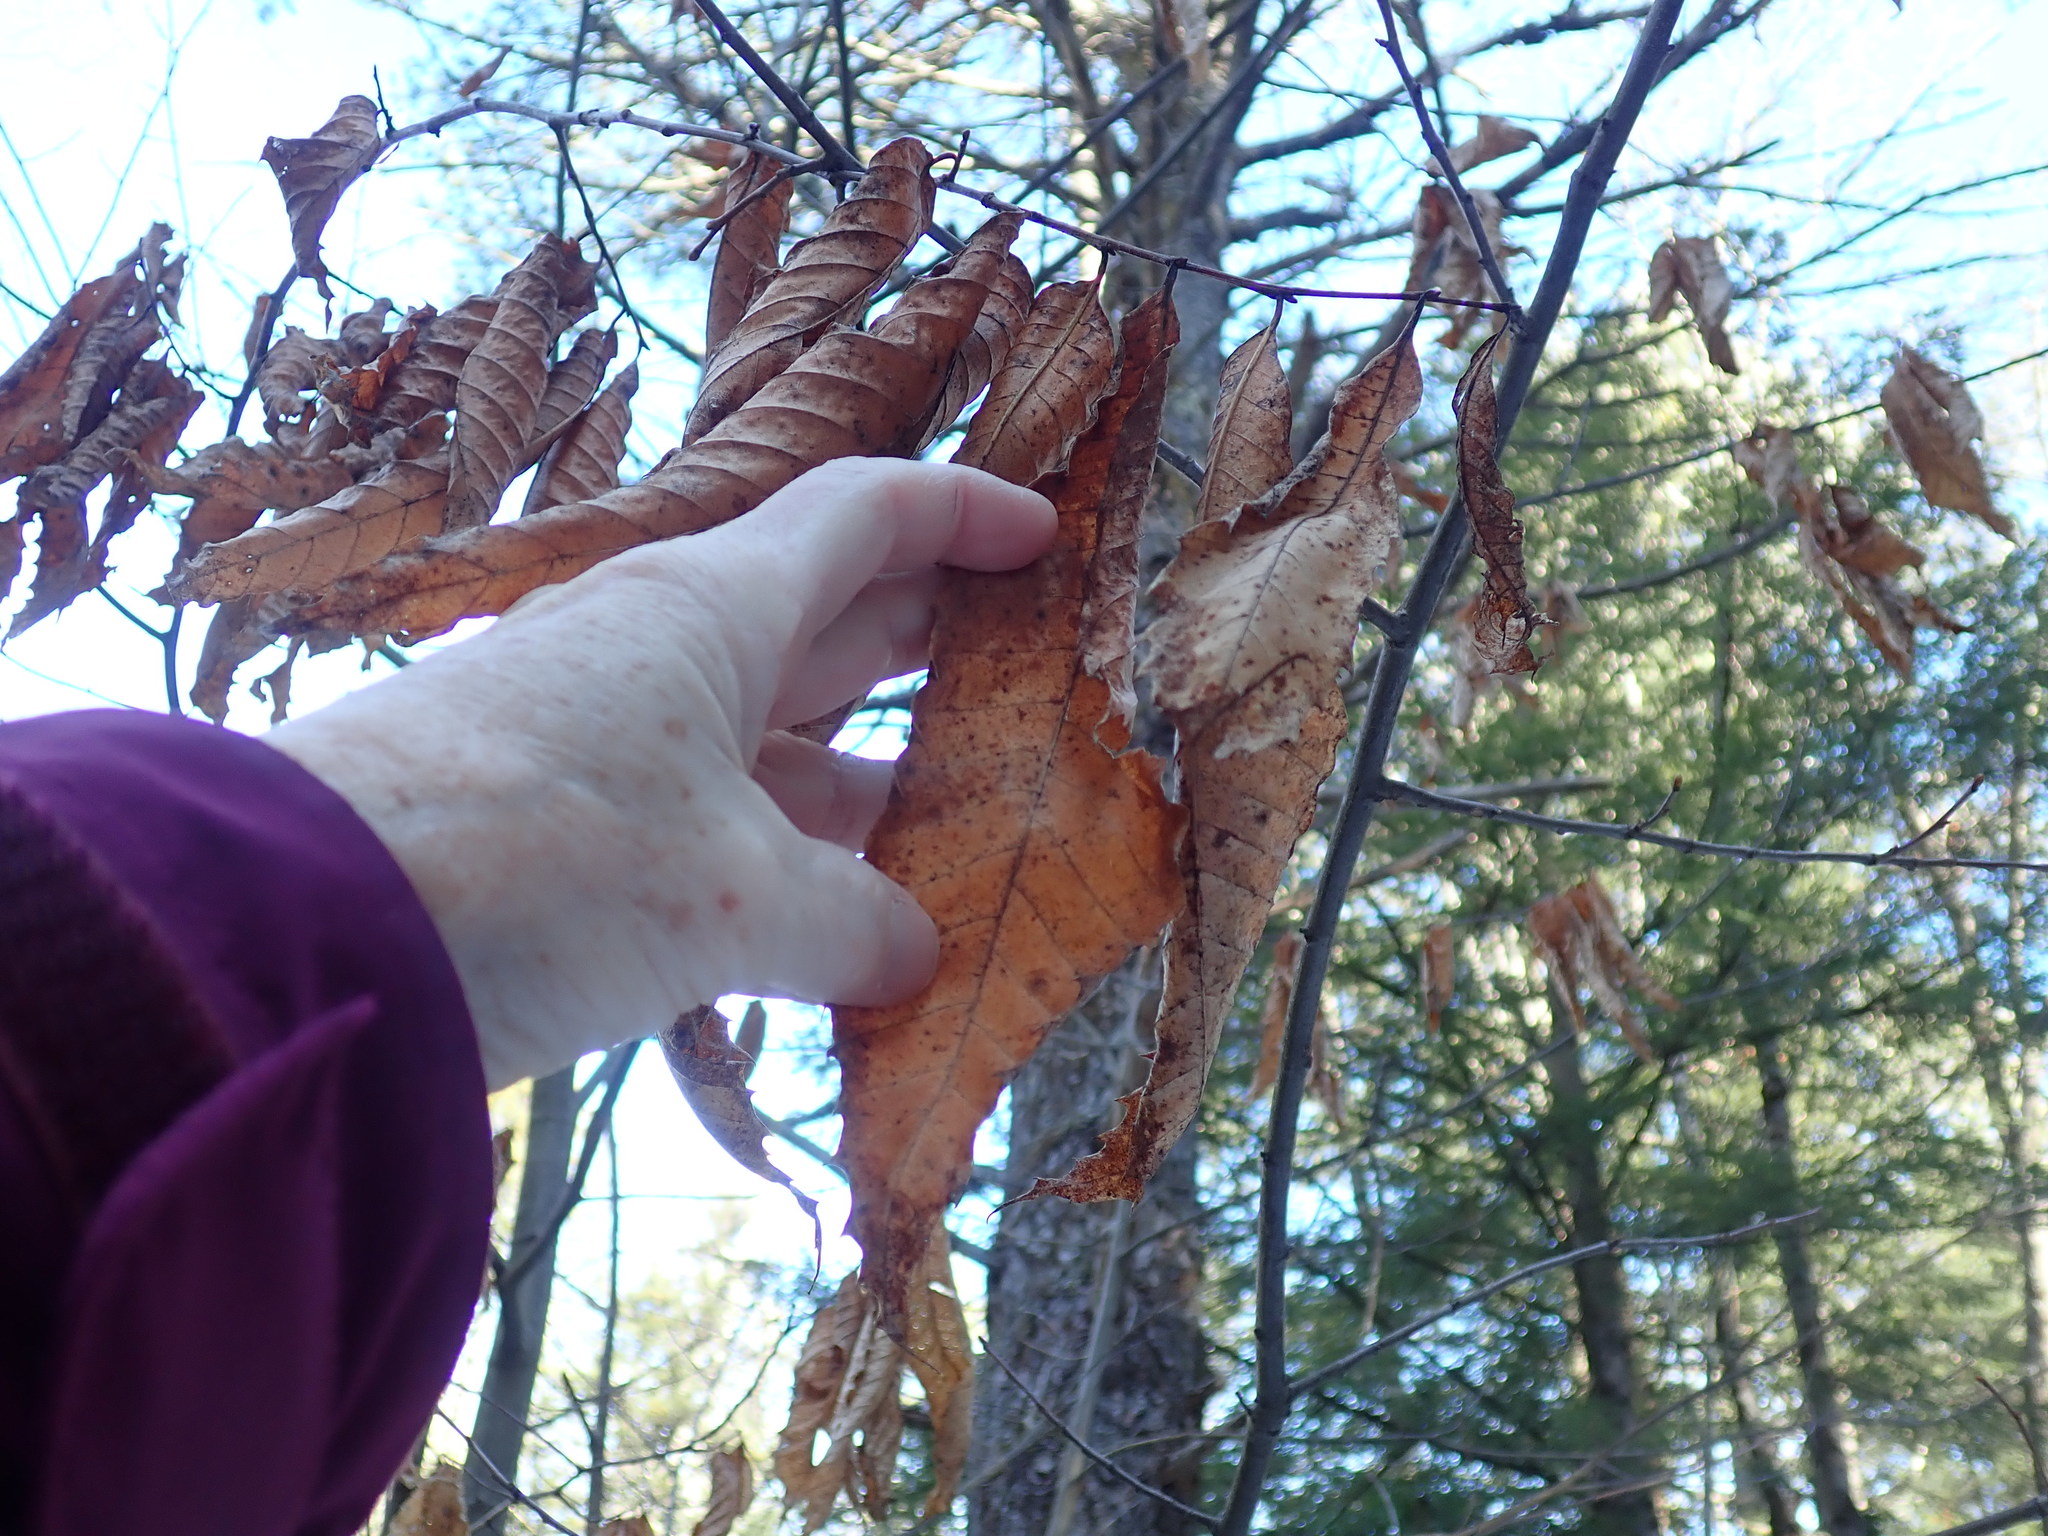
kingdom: Plantae
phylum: Tracheophyta
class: Magnoliopsida
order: Fagales
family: Fagaceae
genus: Castanea
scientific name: Castanea dentata
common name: American chestnut
